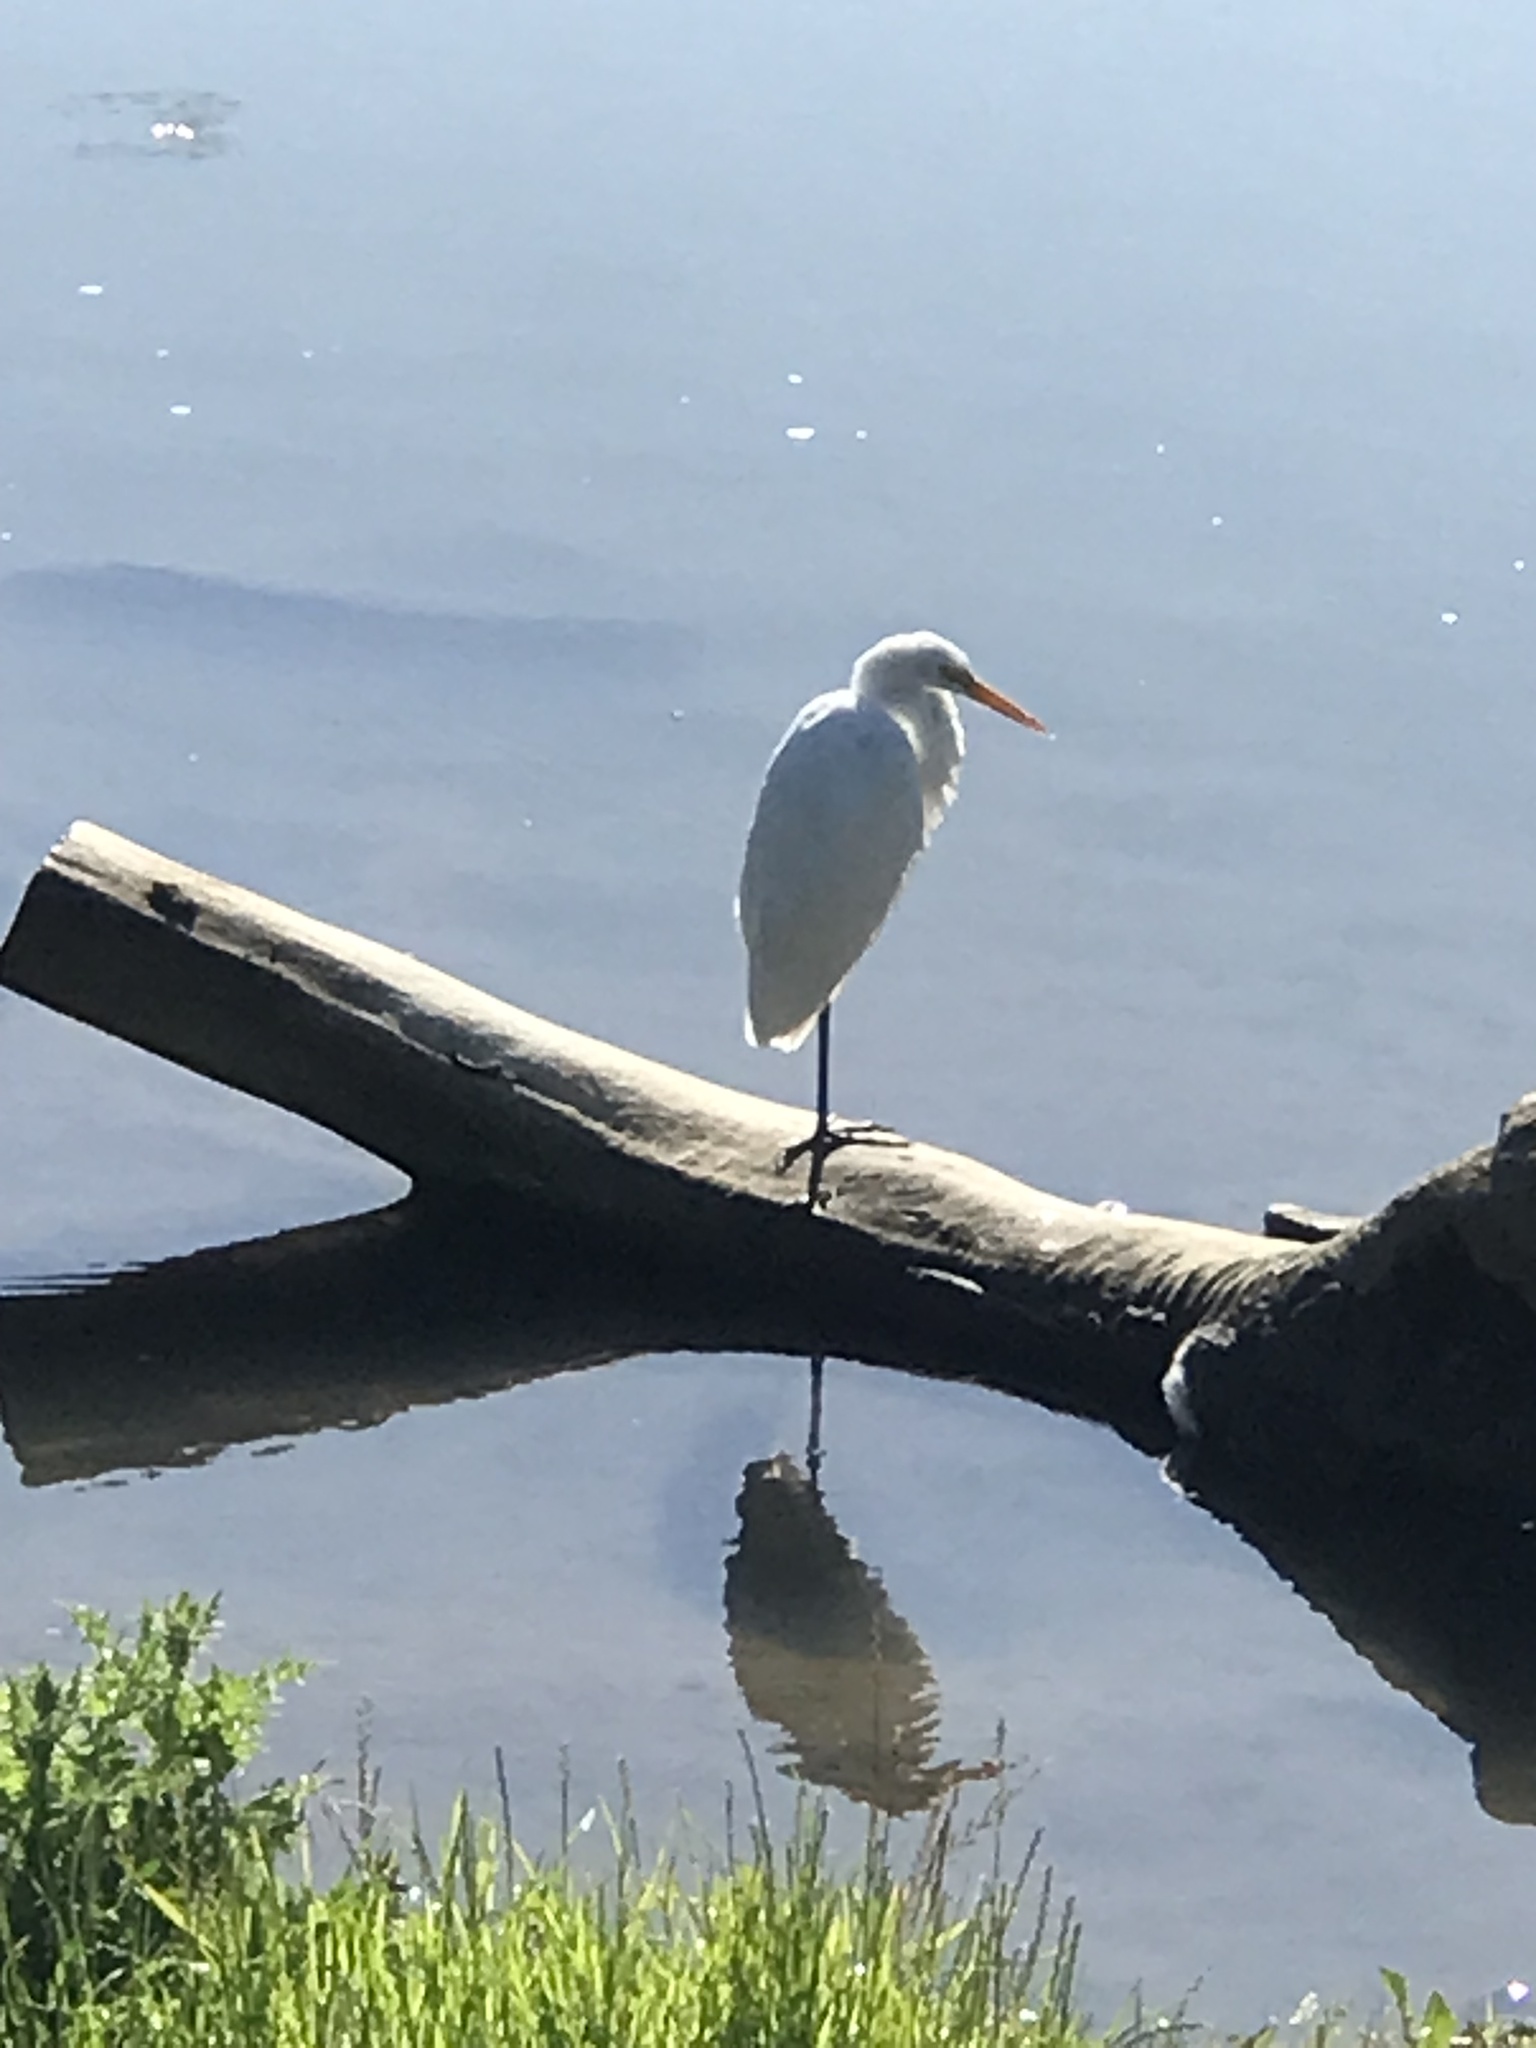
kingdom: Animalia
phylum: Chordata
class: Aves
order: Pelecaniformes
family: Ardeidae
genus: Ardea
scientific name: Ardea alba
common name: Great egret
